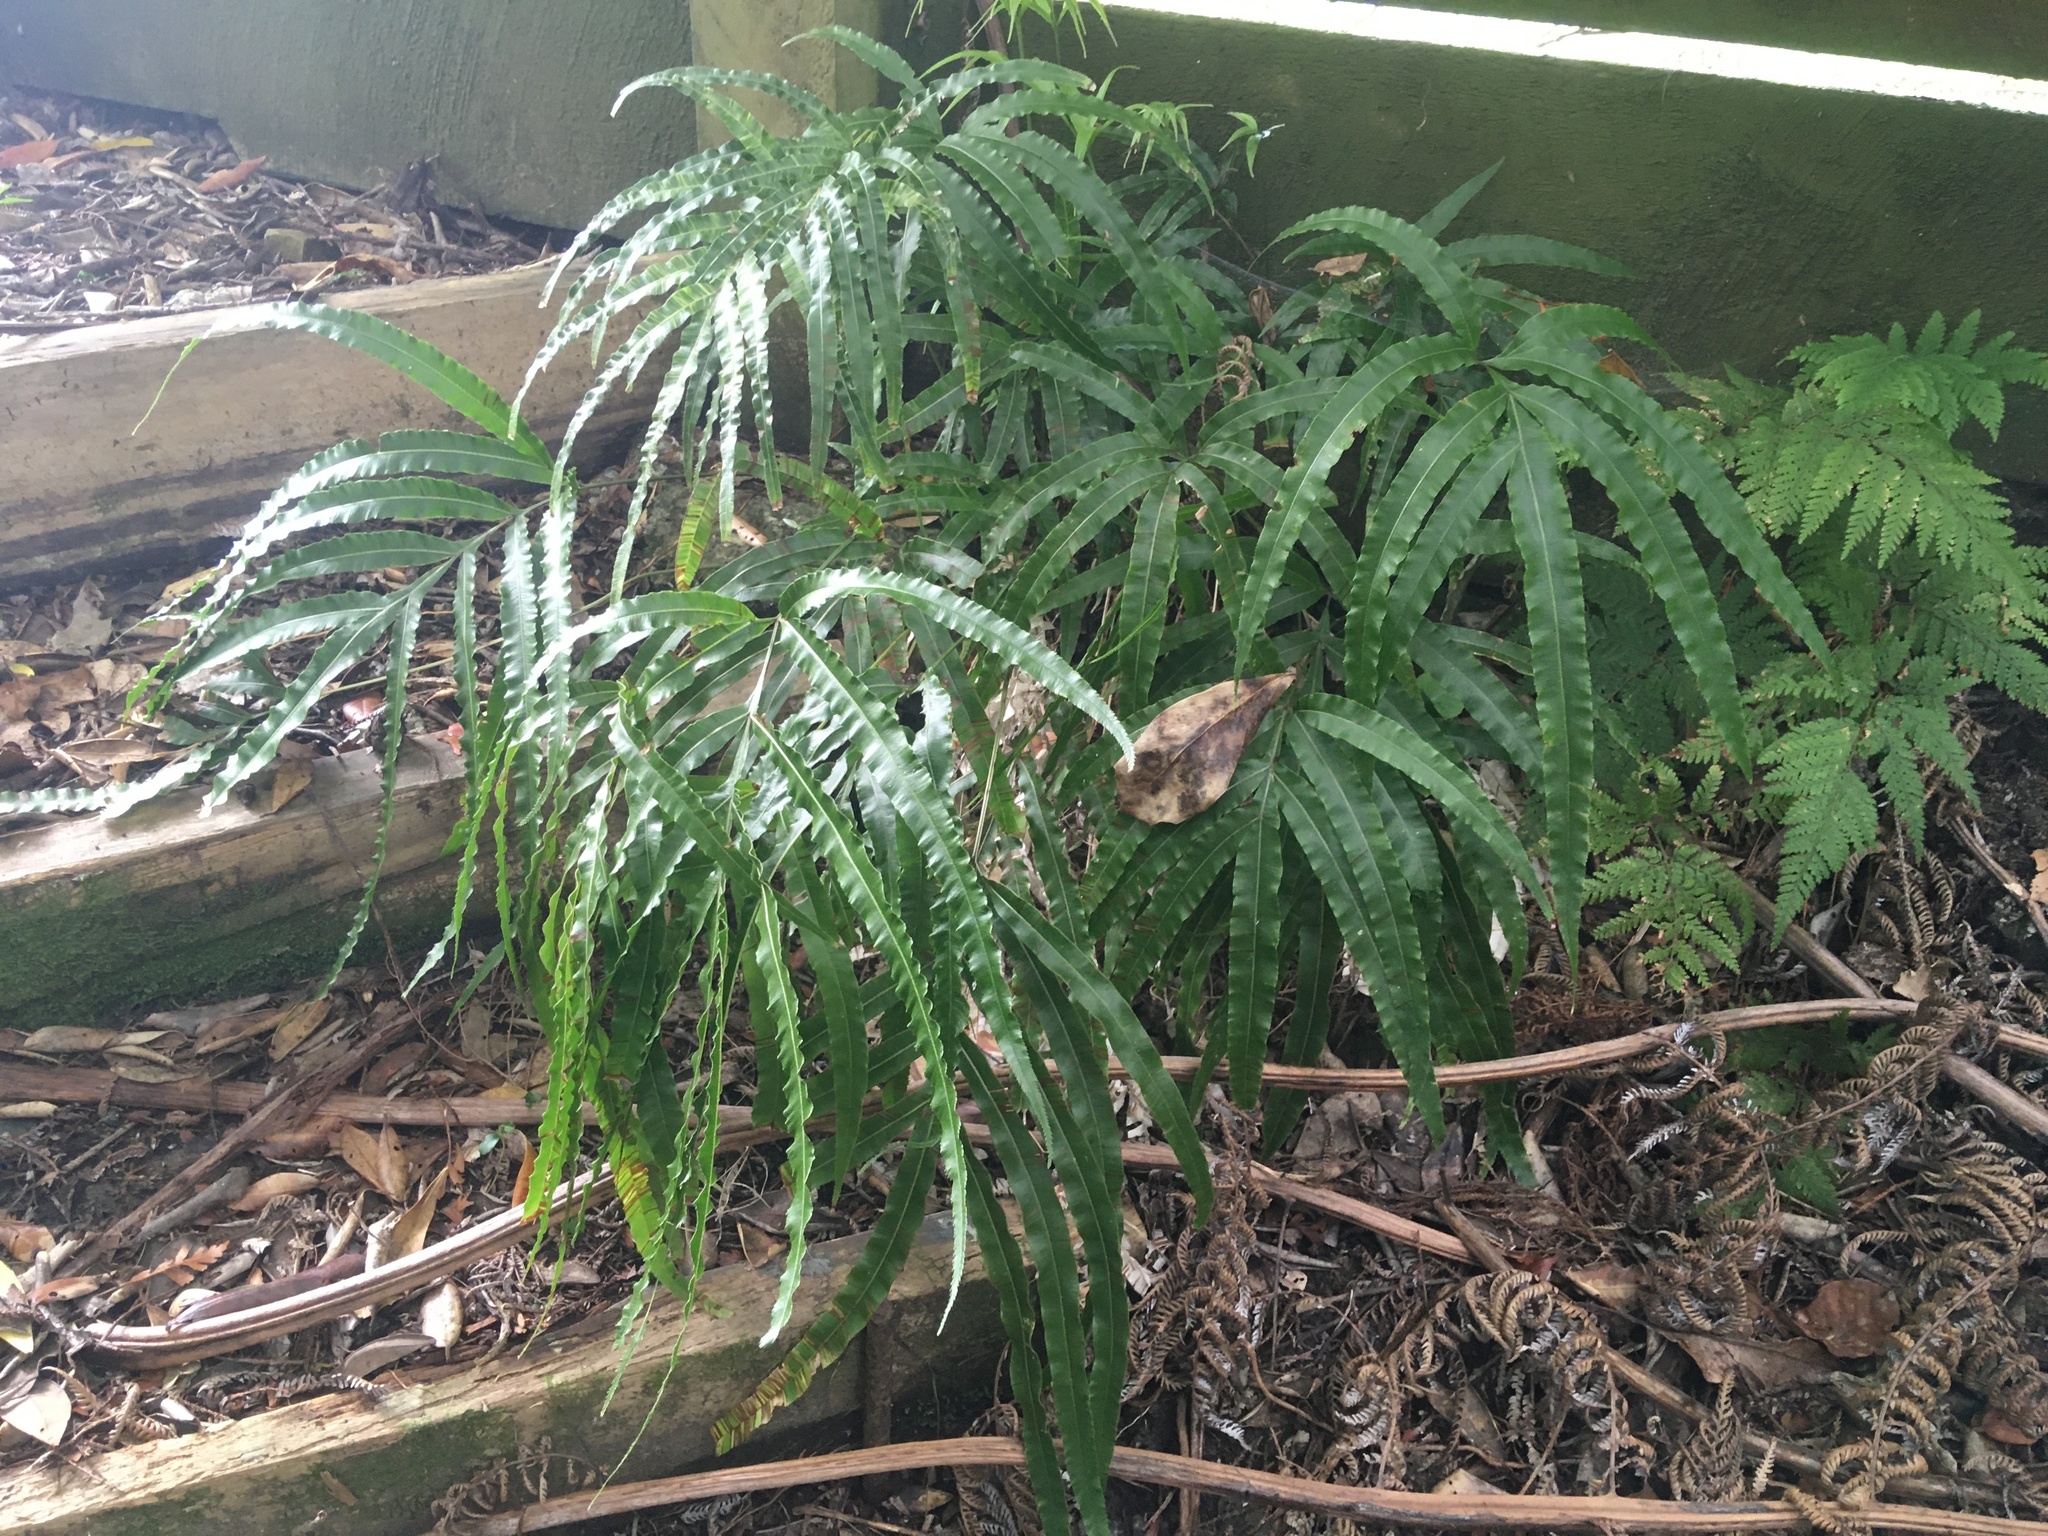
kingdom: Plantae
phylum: Tracheophyta
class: Polypodiopsida
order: Polypodiales
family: Pteridaceae
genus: Pteris
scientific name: Pteris cretica
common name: Ribbon fern
